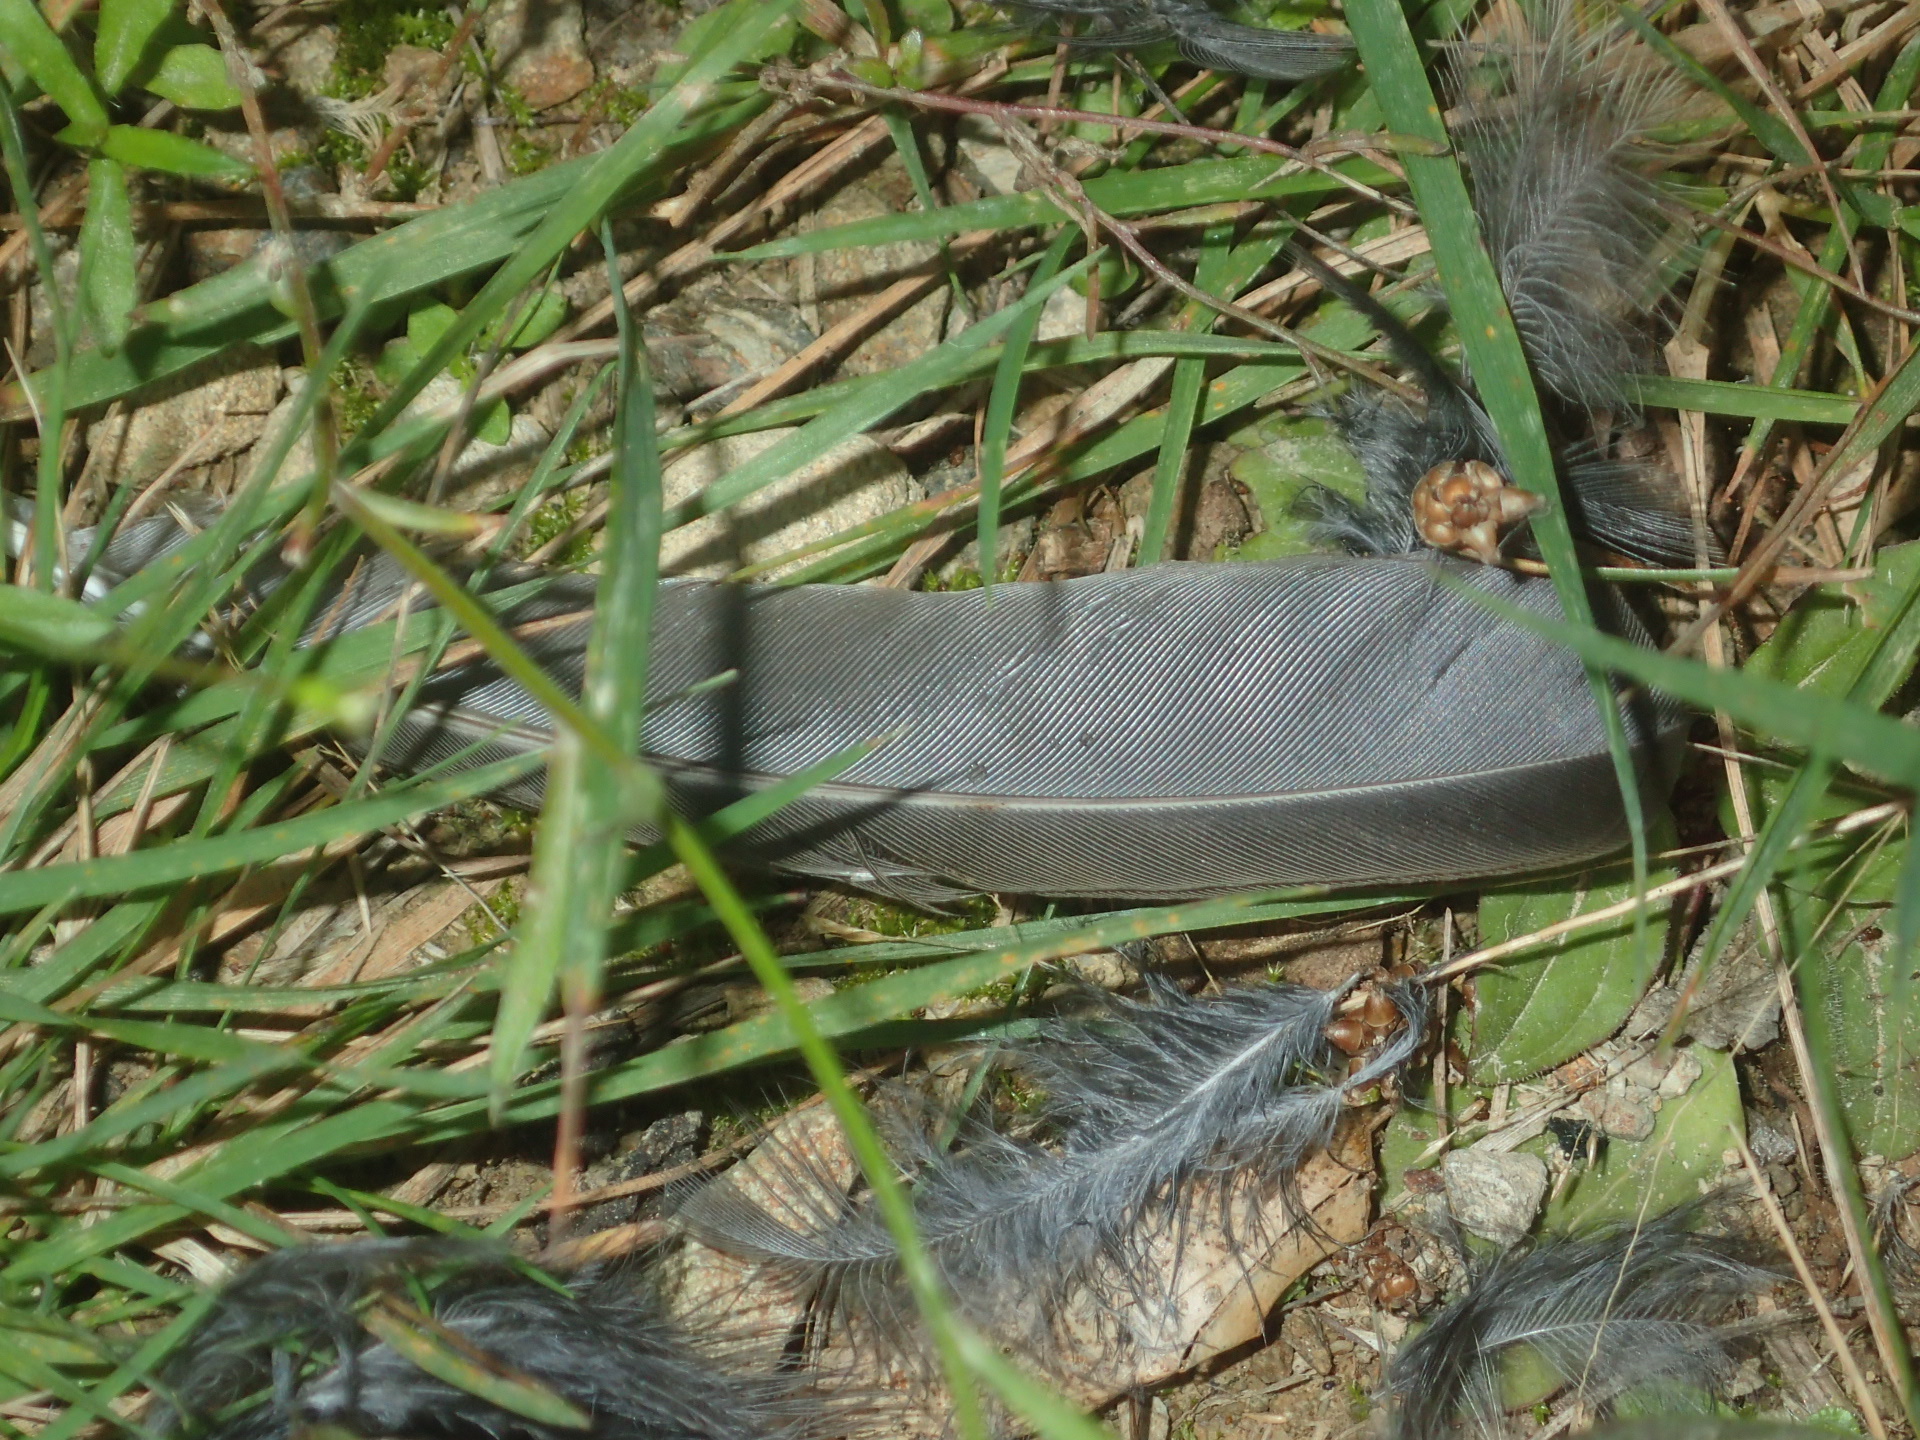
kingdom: Animalia
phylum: Chordata
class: Aves
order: Falconiformes
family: Falconidae
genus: Falco
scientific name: Falco novaeseelandiae
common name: New zealand falcon
